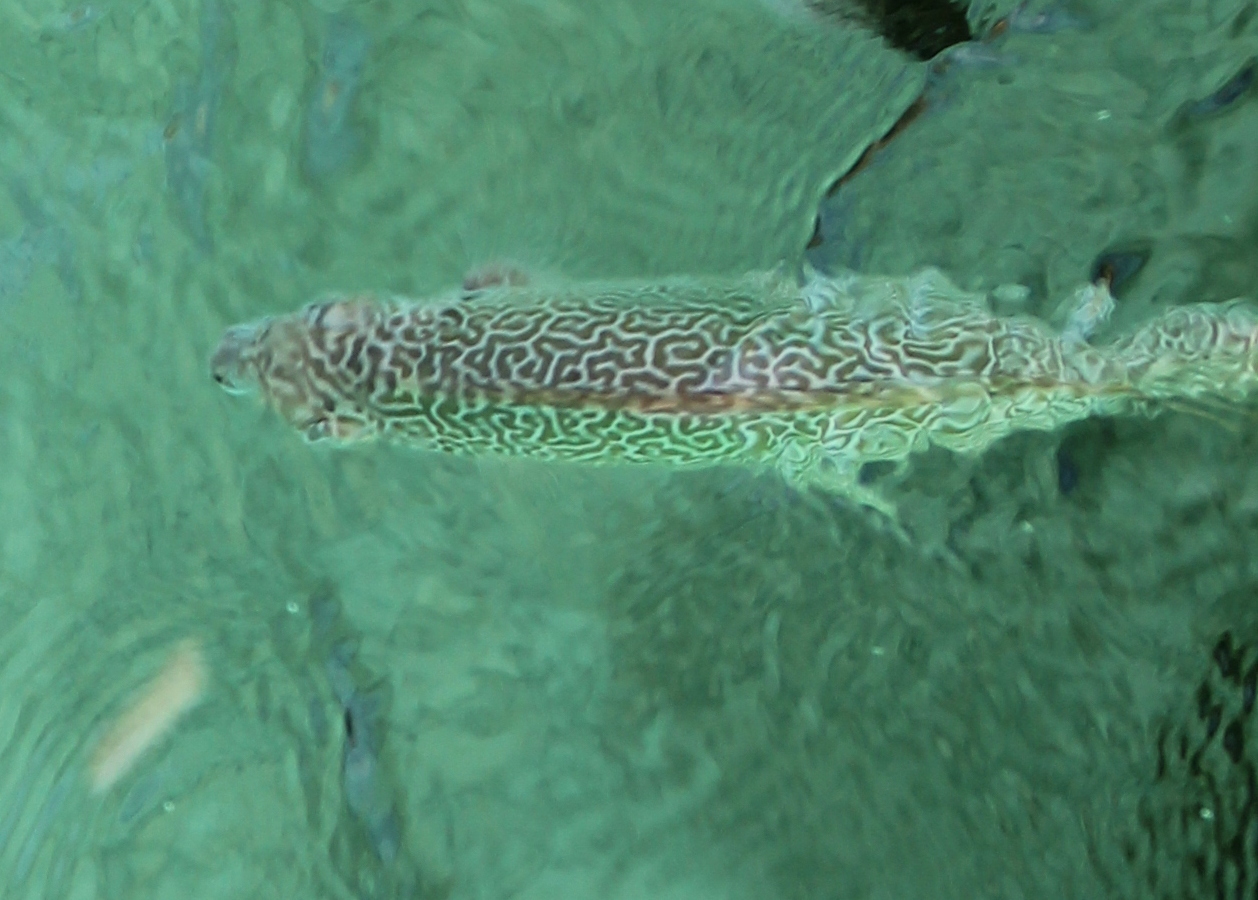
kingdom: Animalia
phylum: Chordata
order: Perciformes
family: Siganidae
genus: Siganus
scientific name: Siganus spinus
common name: Scribbled rabbitfish
